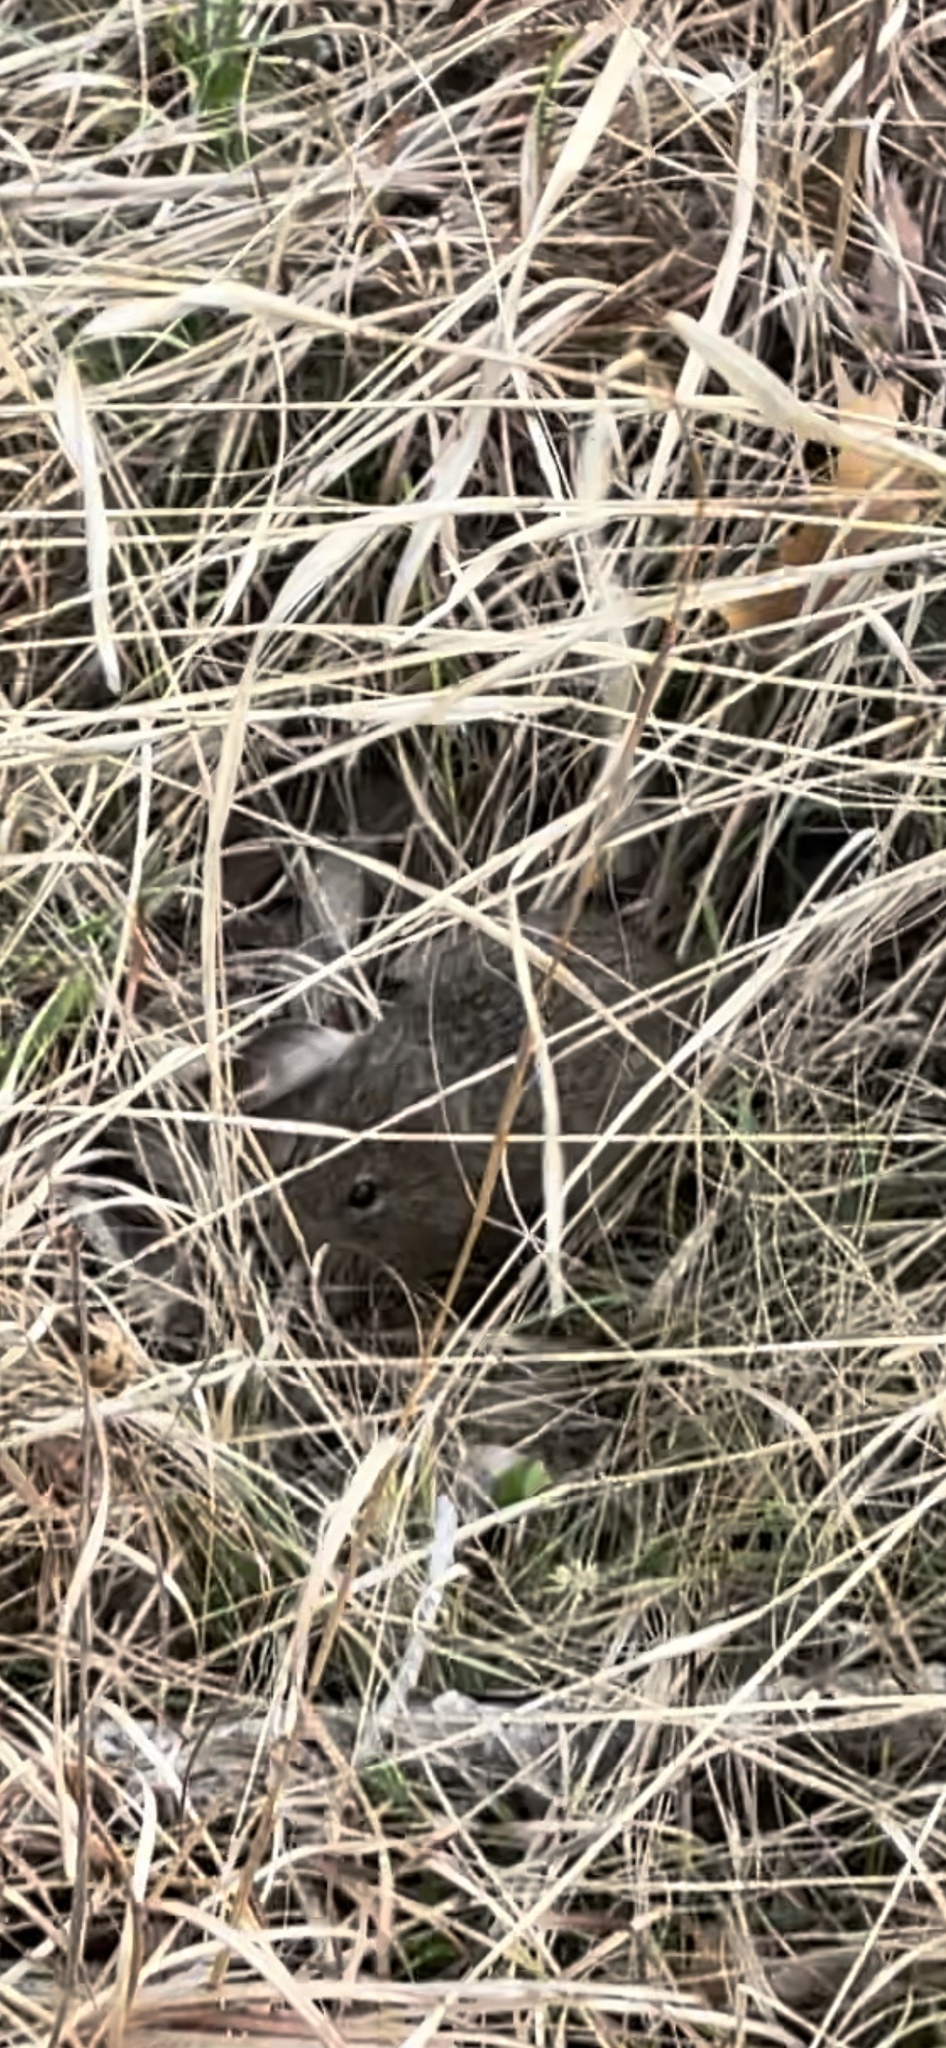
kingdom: Animalia
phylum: Chordata
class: Mammalia
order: Rodentia
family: Cricetidae
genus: Sigmodon
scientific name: Sigmodon hispidus
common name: Hispid cotton rat
